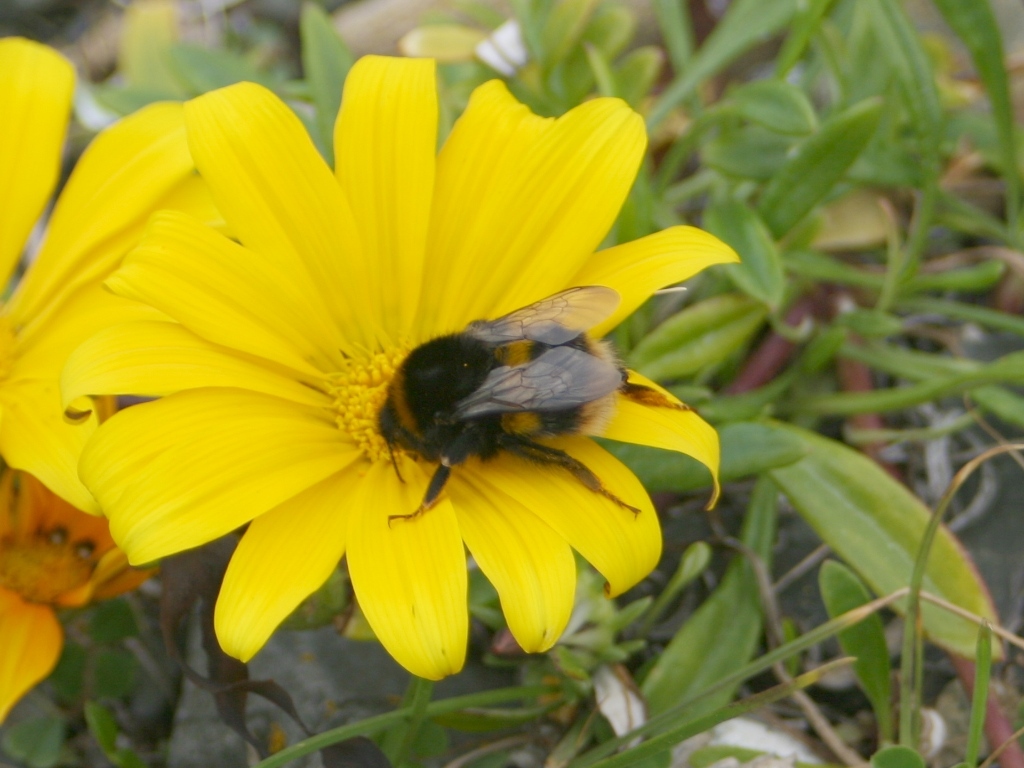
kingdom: Animalia
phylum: Arthropoda
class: Insecta
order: Hymenoptera
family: Apidae
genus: Bombus
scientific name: Bombus terrestris
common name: Buff-tailed bumblebee
